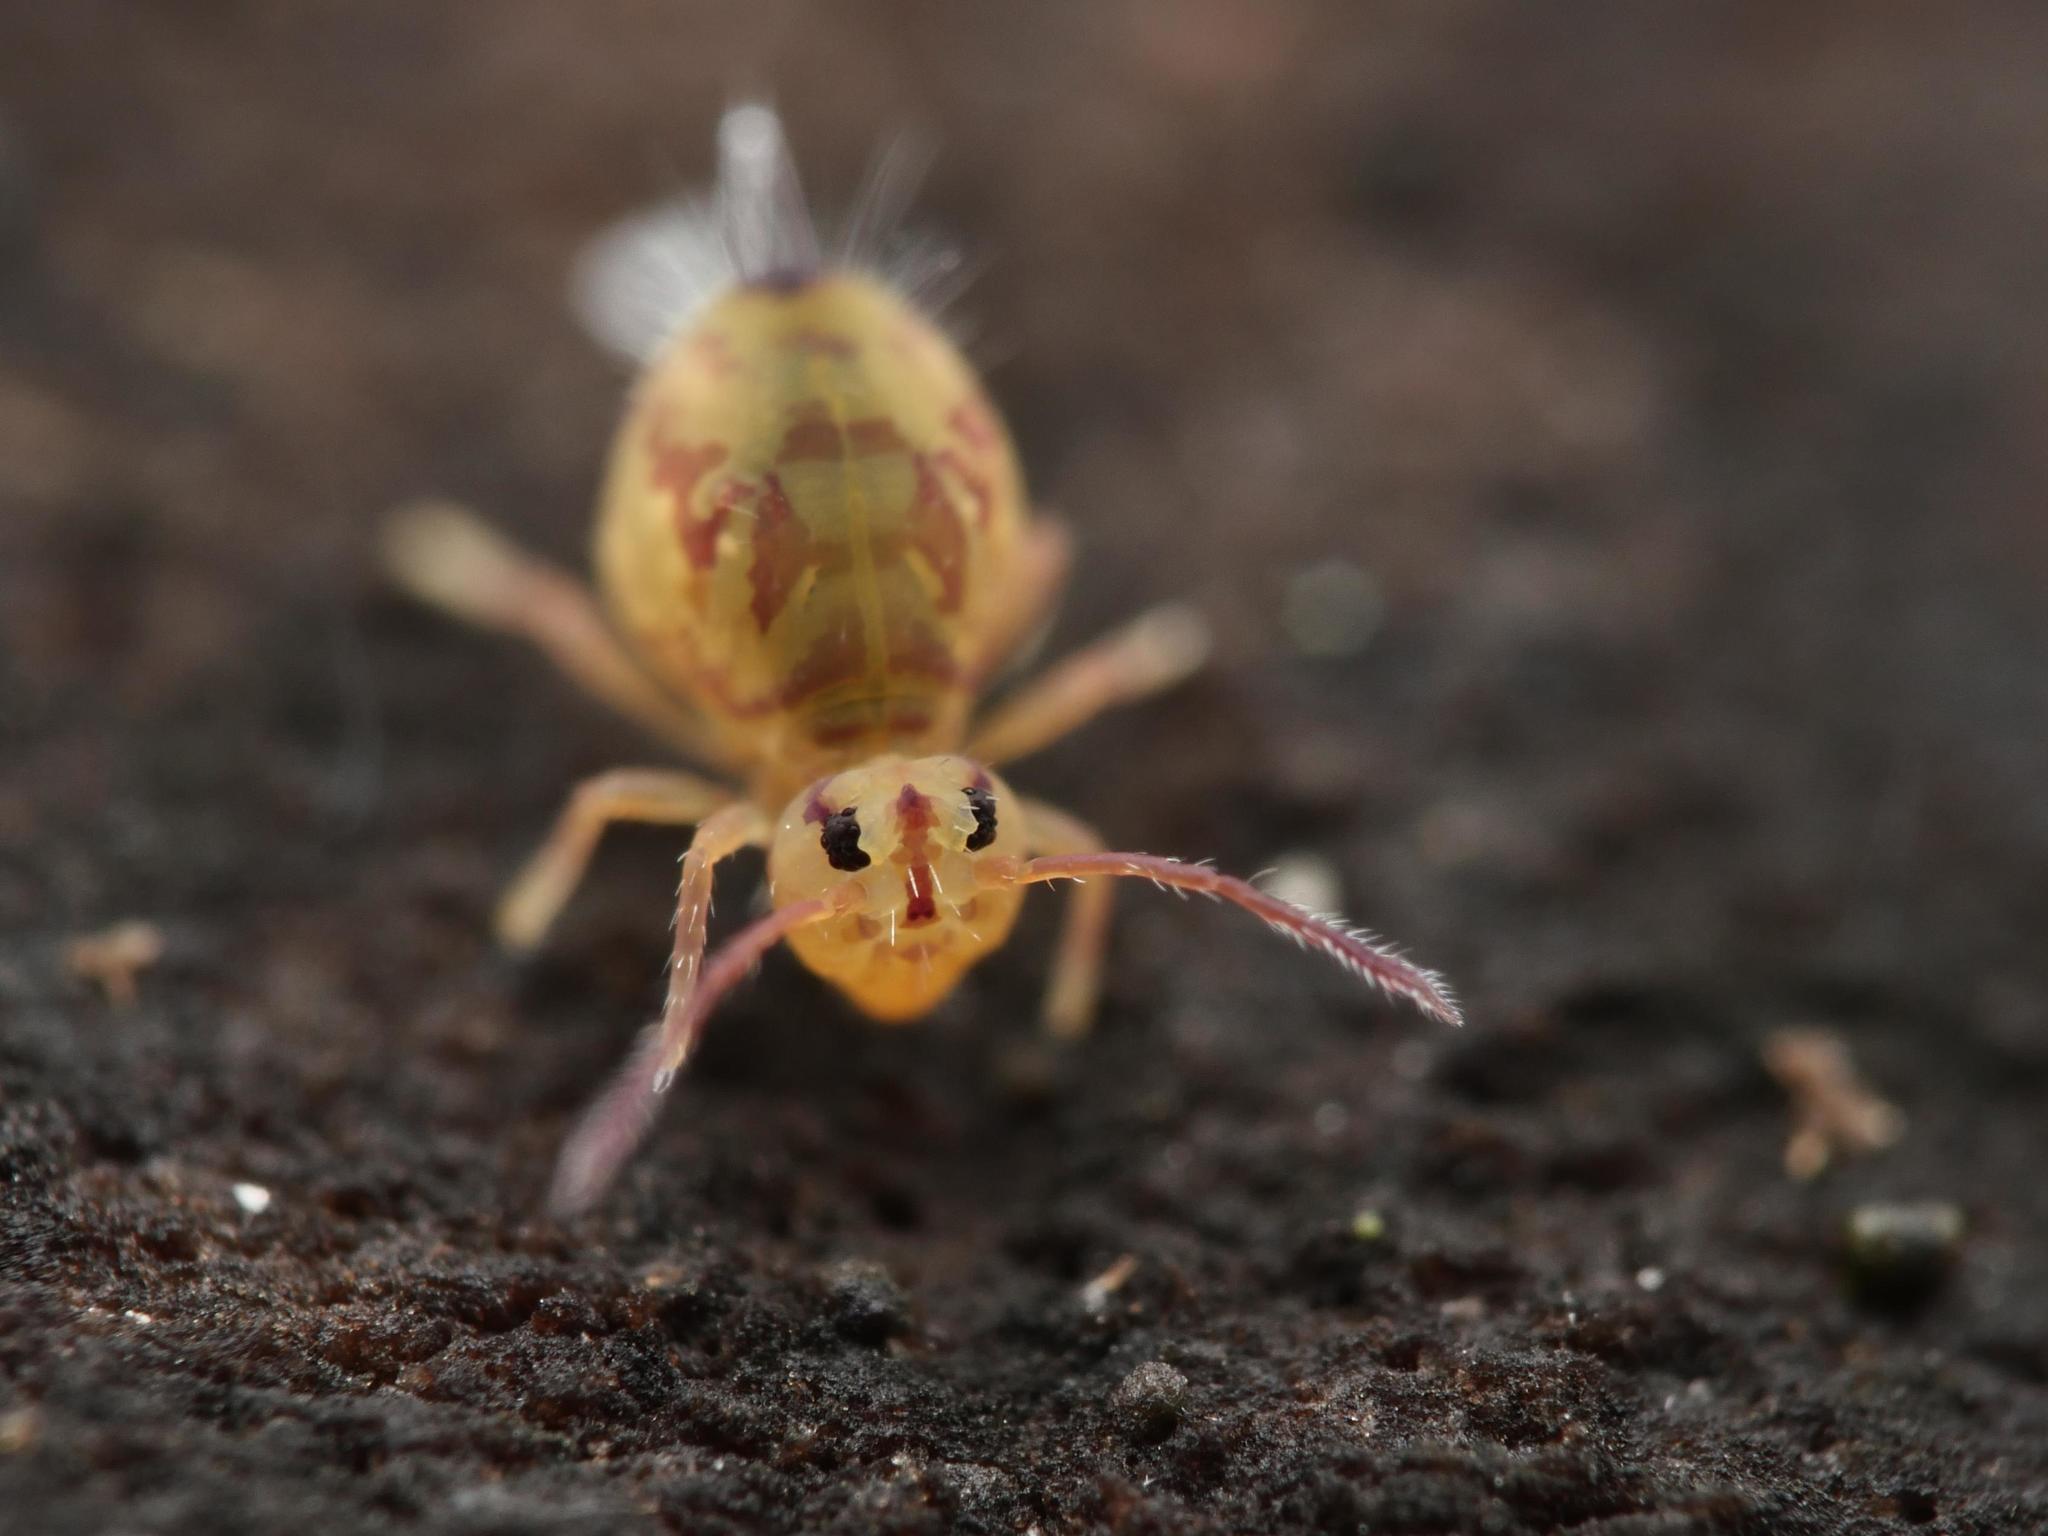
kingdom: Animalia
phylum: Arthropoda
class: Collembola
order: Symphypleona
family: Dicyrtomidae
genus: Dicyrtomina
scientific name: Dicyrtomina ornata
